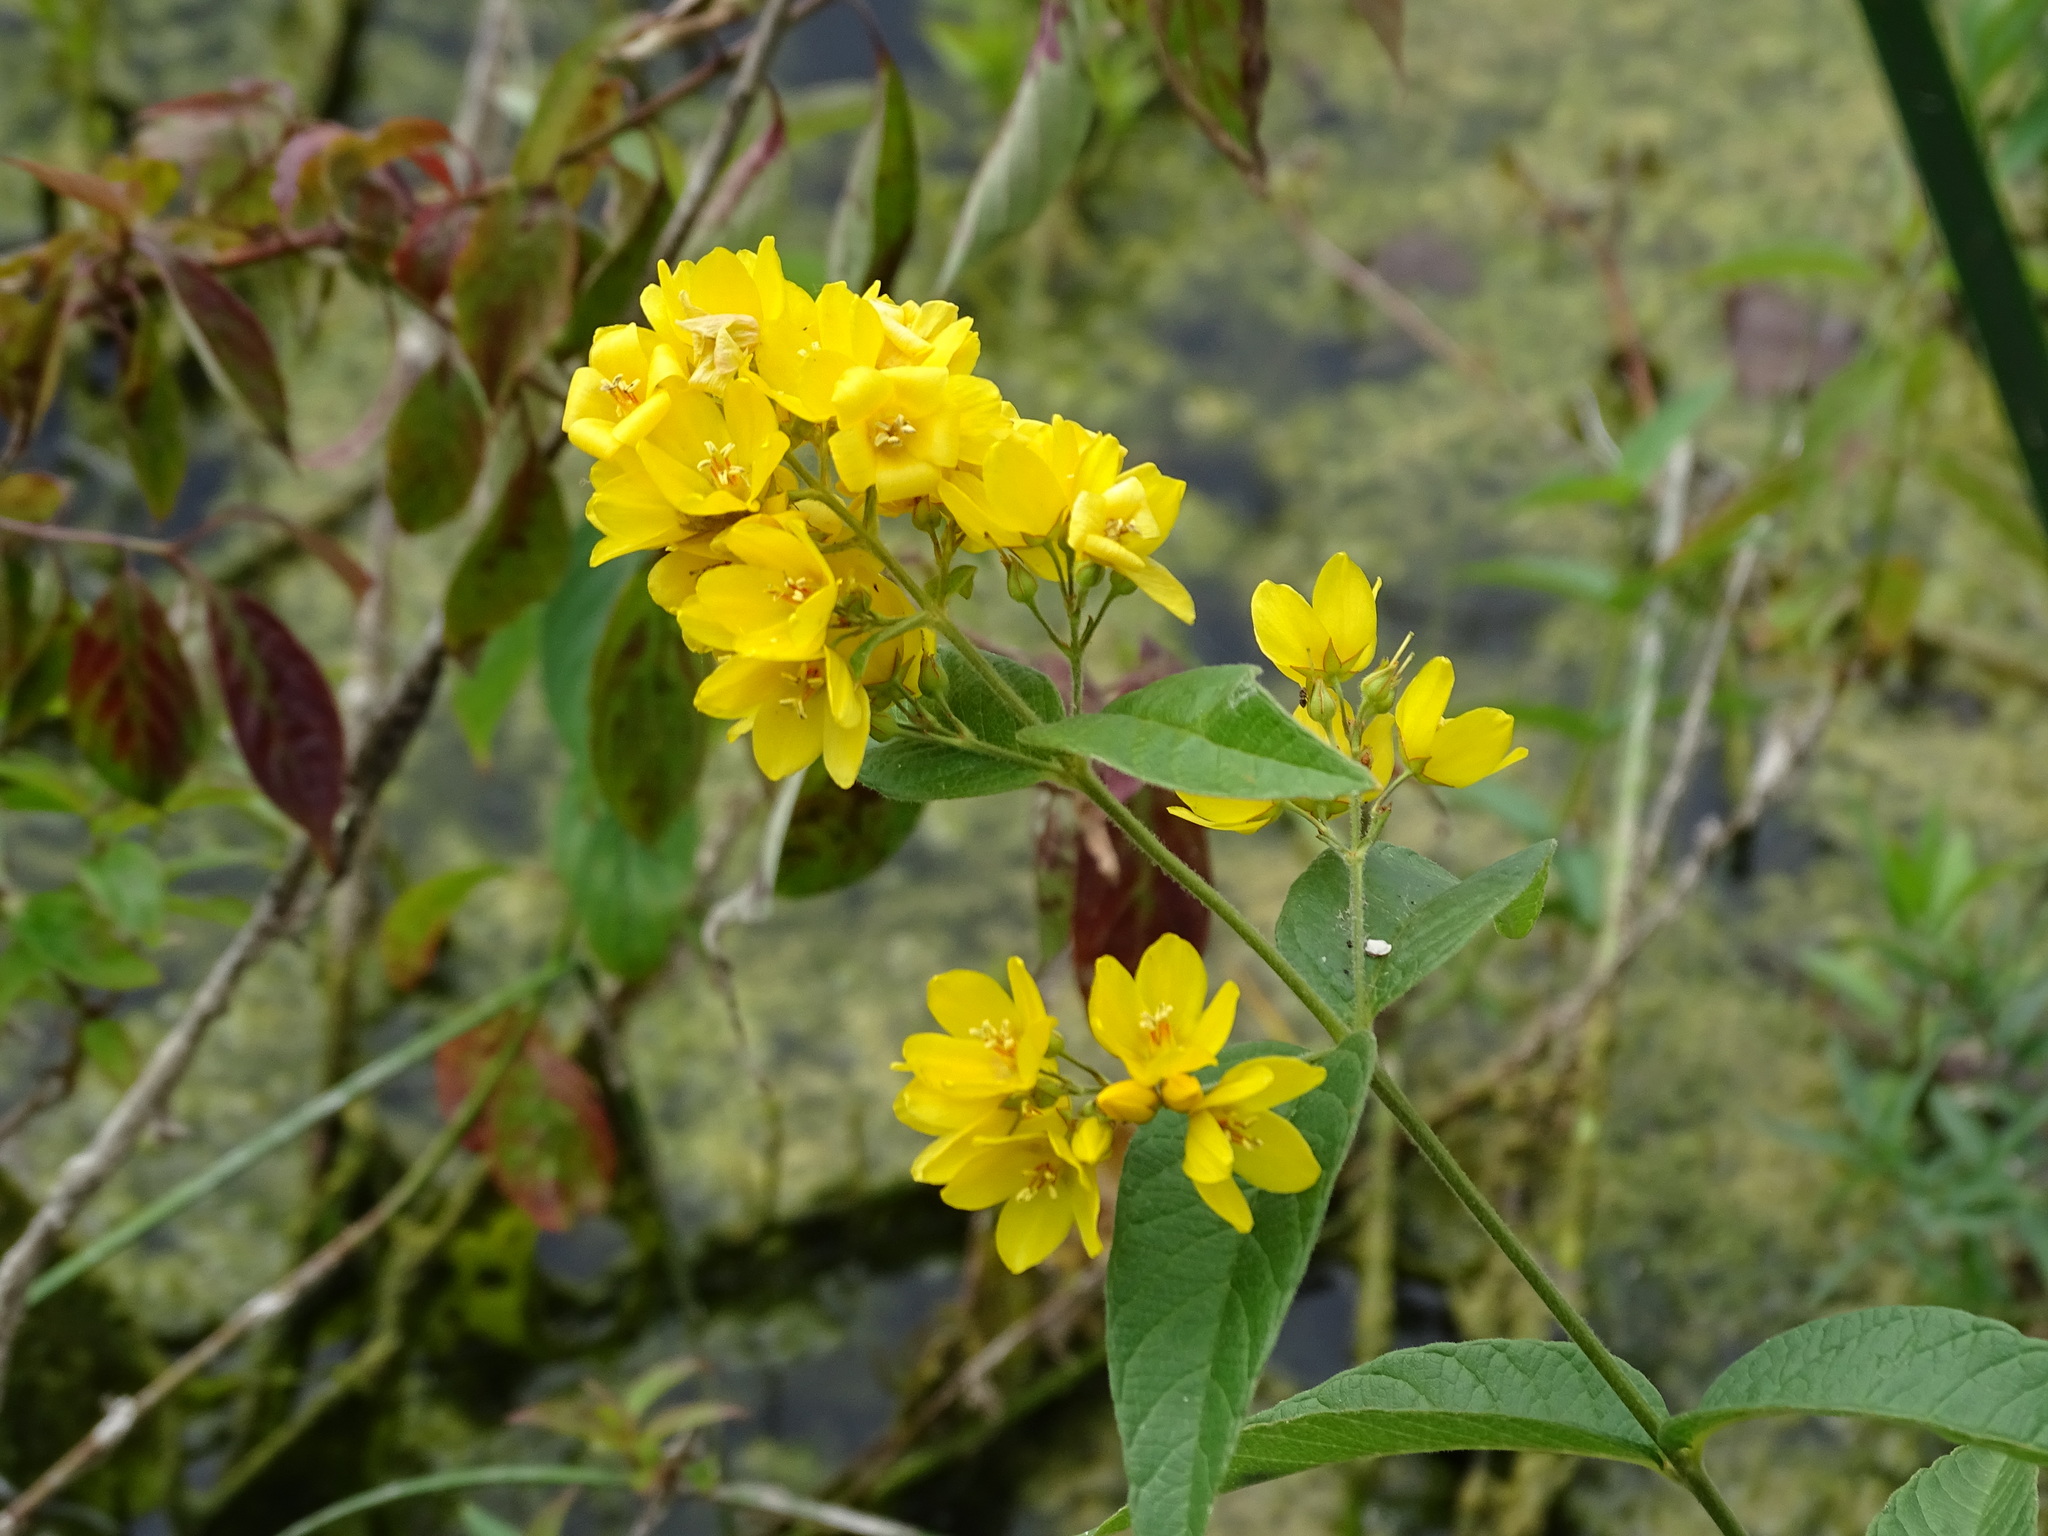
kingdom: Plantae
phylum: Tracheophyta
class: Magnoliopsida
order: Ericales
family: Primulaceae
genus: Lysimachia
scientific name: Lysimachia vulgaris
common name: Yellow loosestrife
